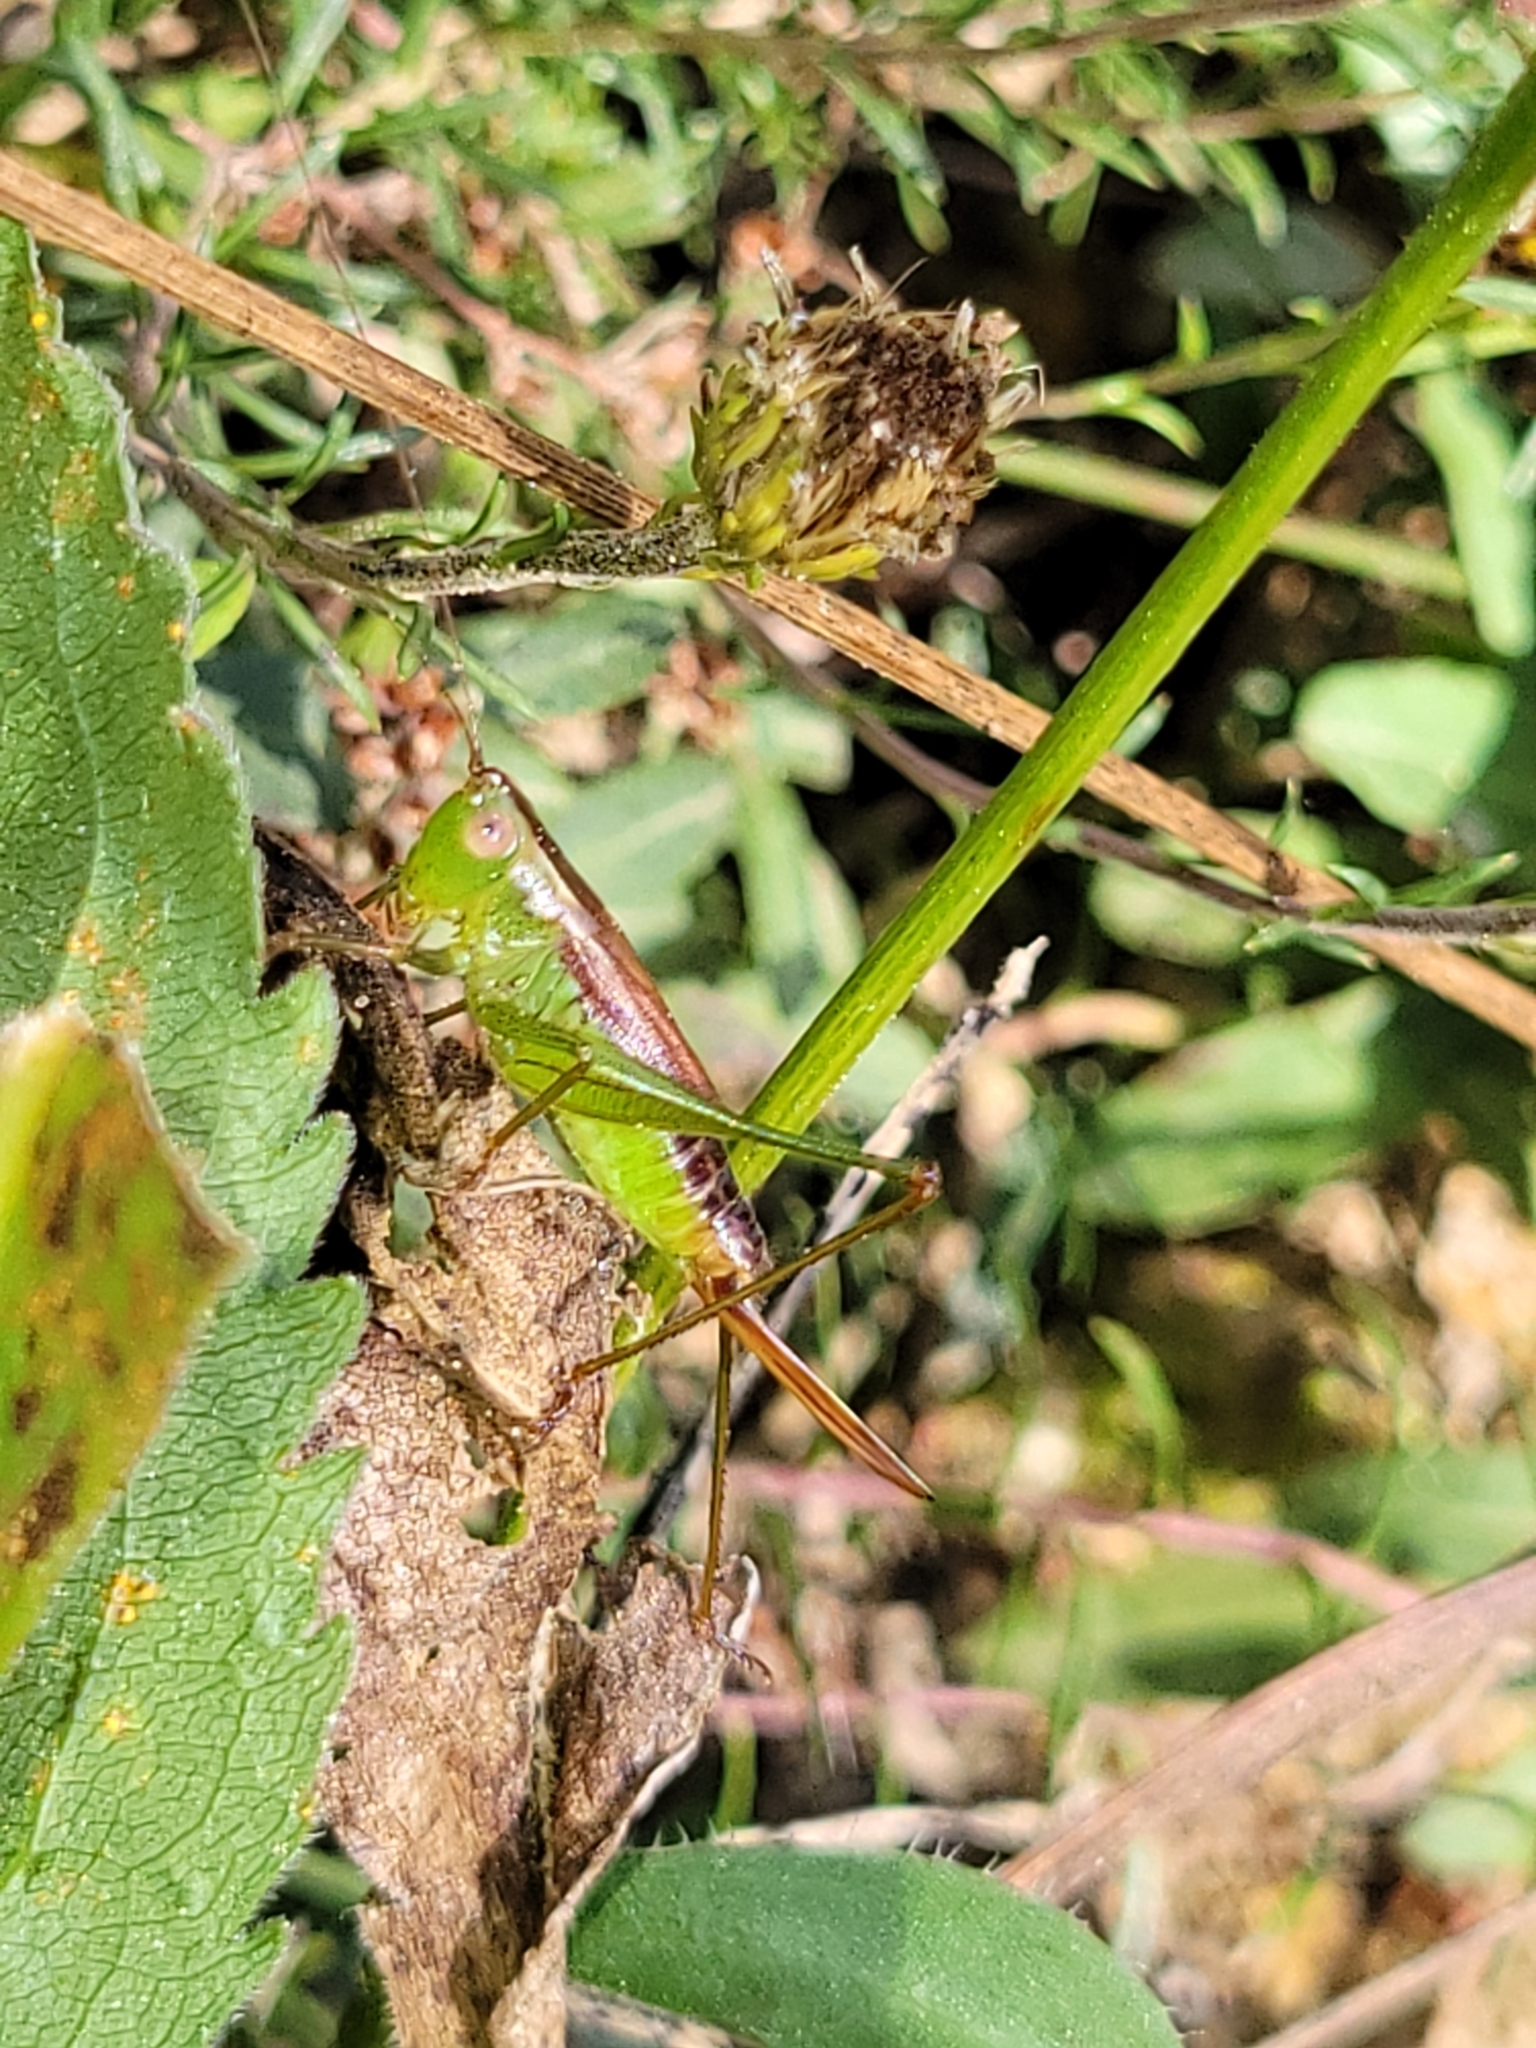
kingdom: Animalia
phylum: Arthropoda
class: Insecta
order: Orthoptera
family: Tettigoniidae
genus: Conocephalus
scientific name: Conocephalus brevipennis
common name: Short-winged meadow katydid
